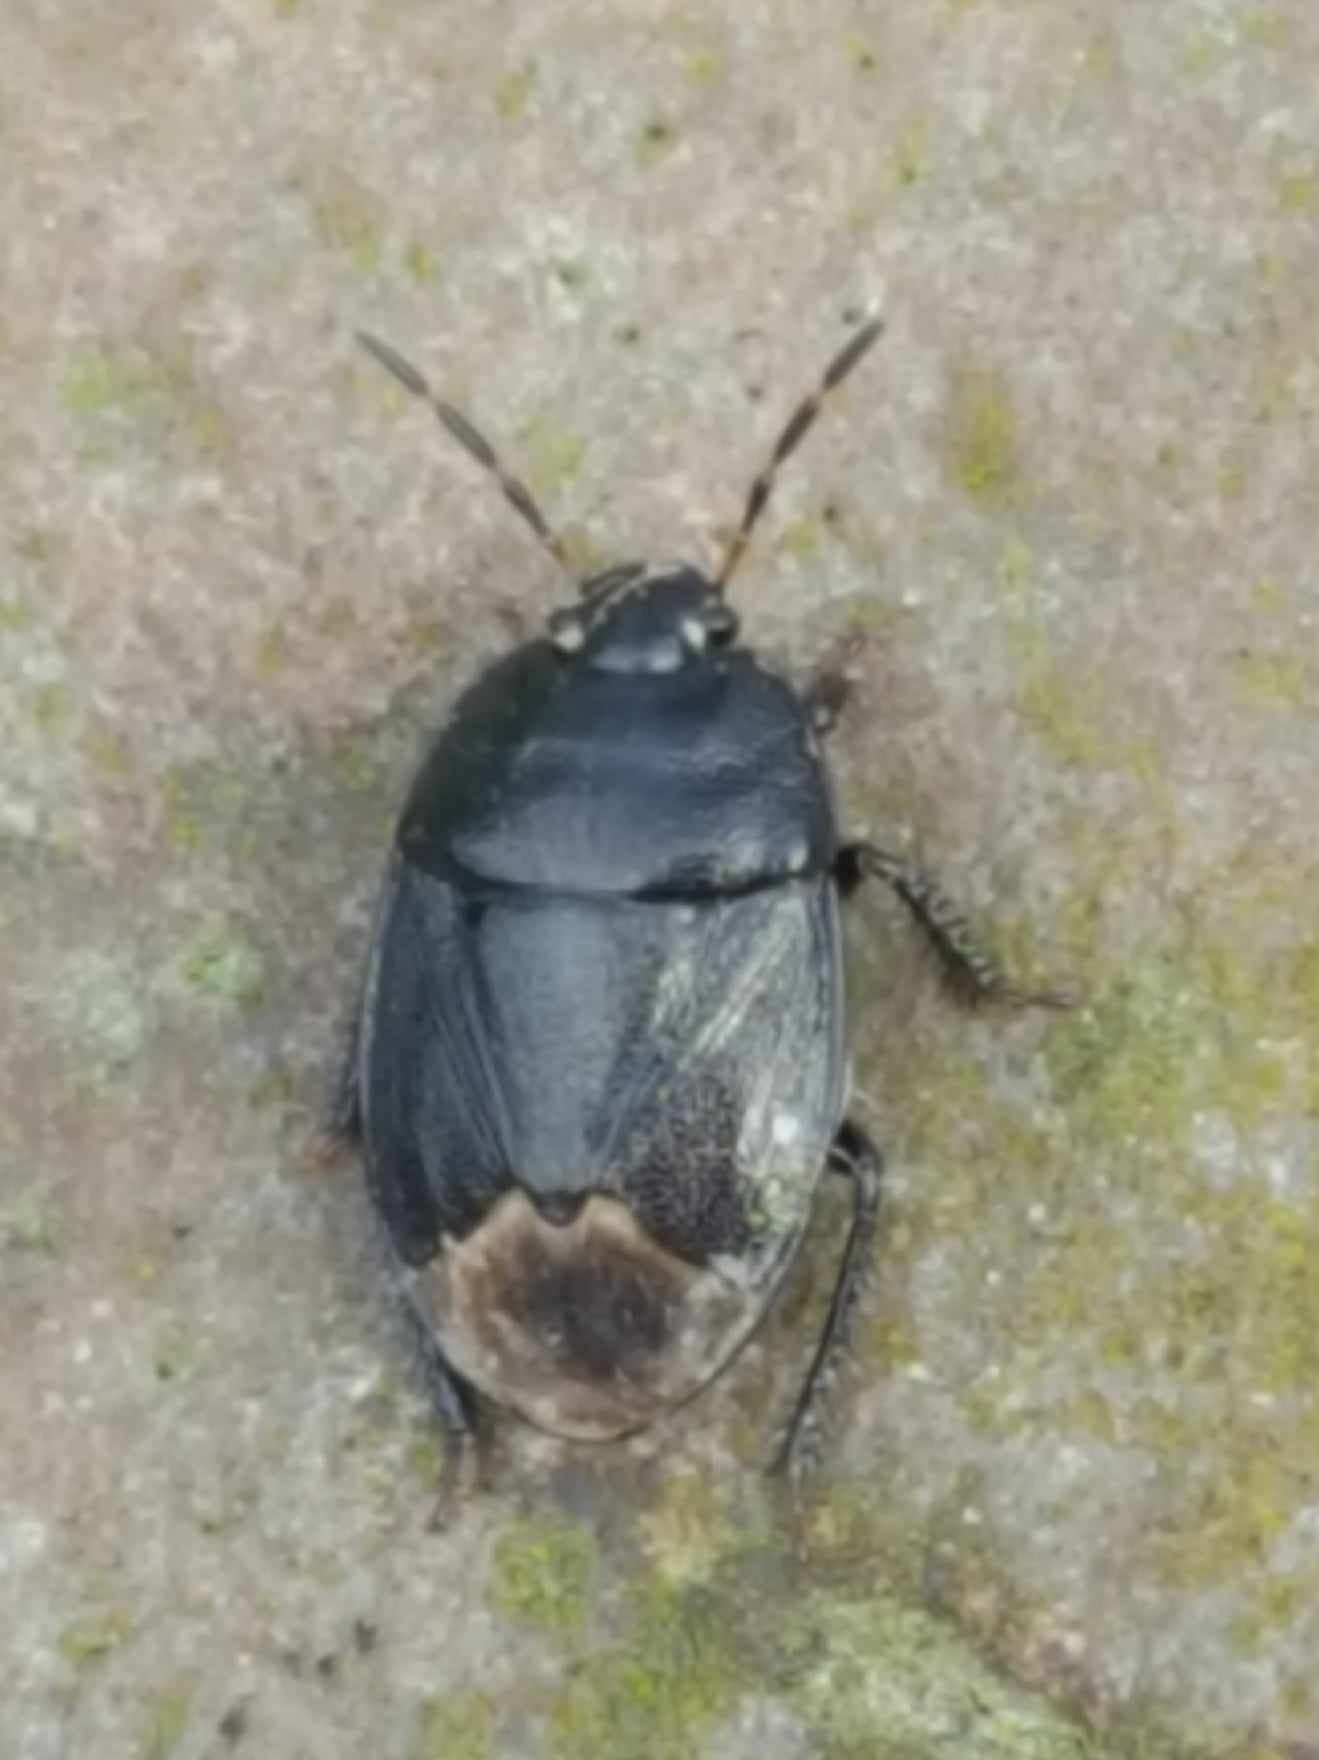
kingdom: Animalia
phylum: Arthropoda
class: Insecta
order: Hemiptera
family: Cydnidae
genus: Sehirus
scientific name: Sehirus luctuosus
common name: Forget-me-not shieldbug
